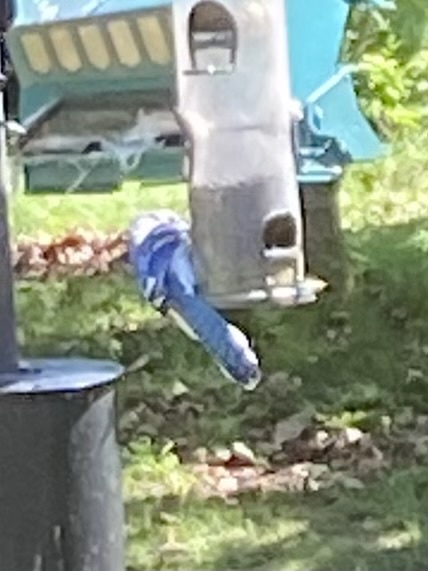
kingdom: Animalia
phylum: Chordata
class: Aves
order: Passeriformes
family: Corvidae
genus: Cyanocitta
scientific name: Cyanocitta cristata
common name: Blue jay
